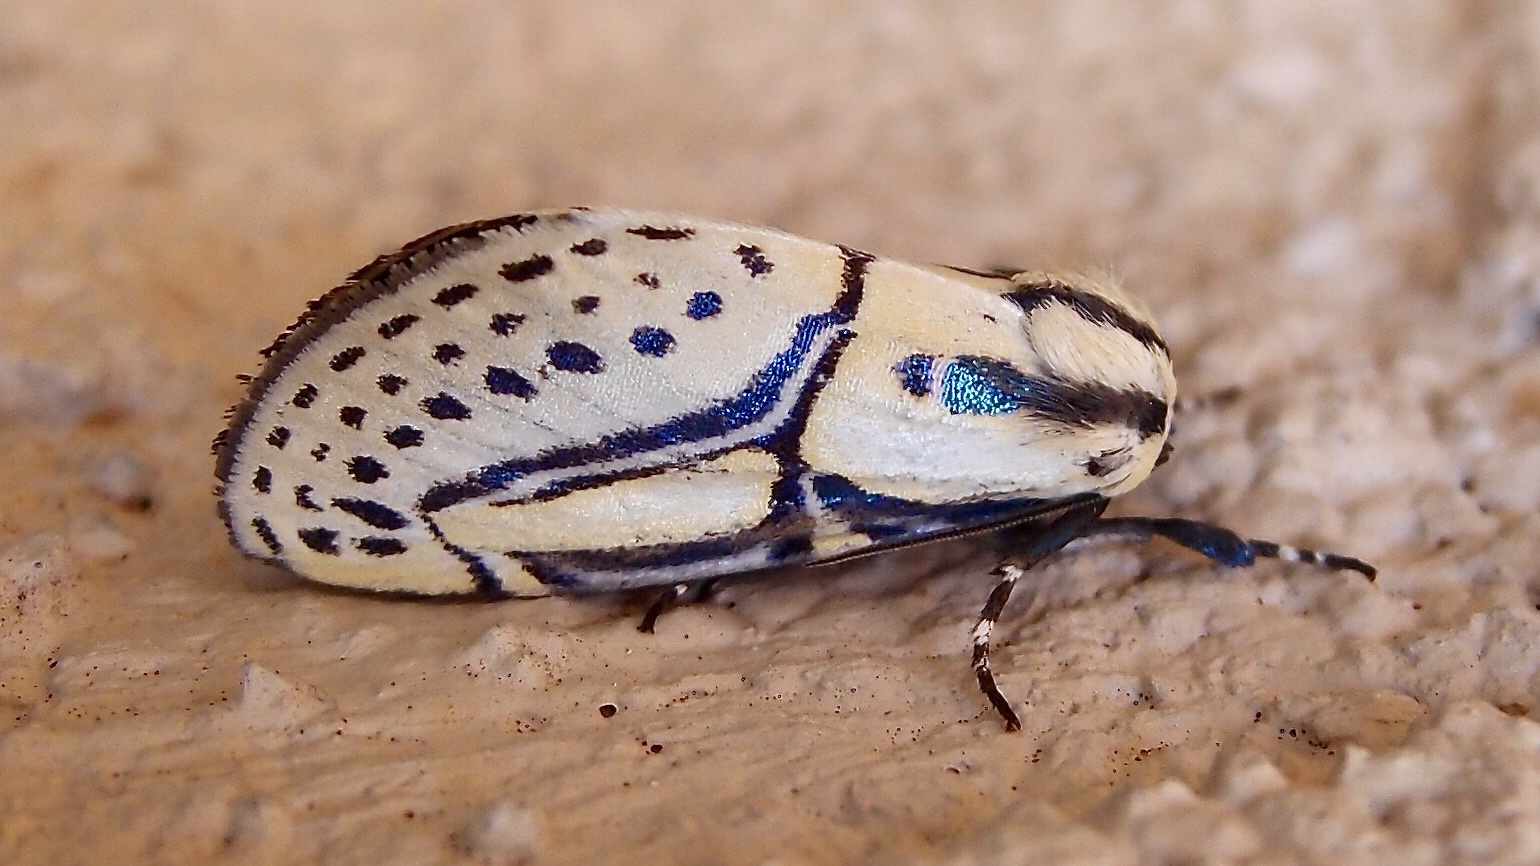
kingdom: Animalia
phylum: Arthropoda
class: Insecta
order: Lepidoptera
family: Erebidae
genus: Diphthera
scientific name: Diphthera festiva
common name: Hieroglyphic moth
